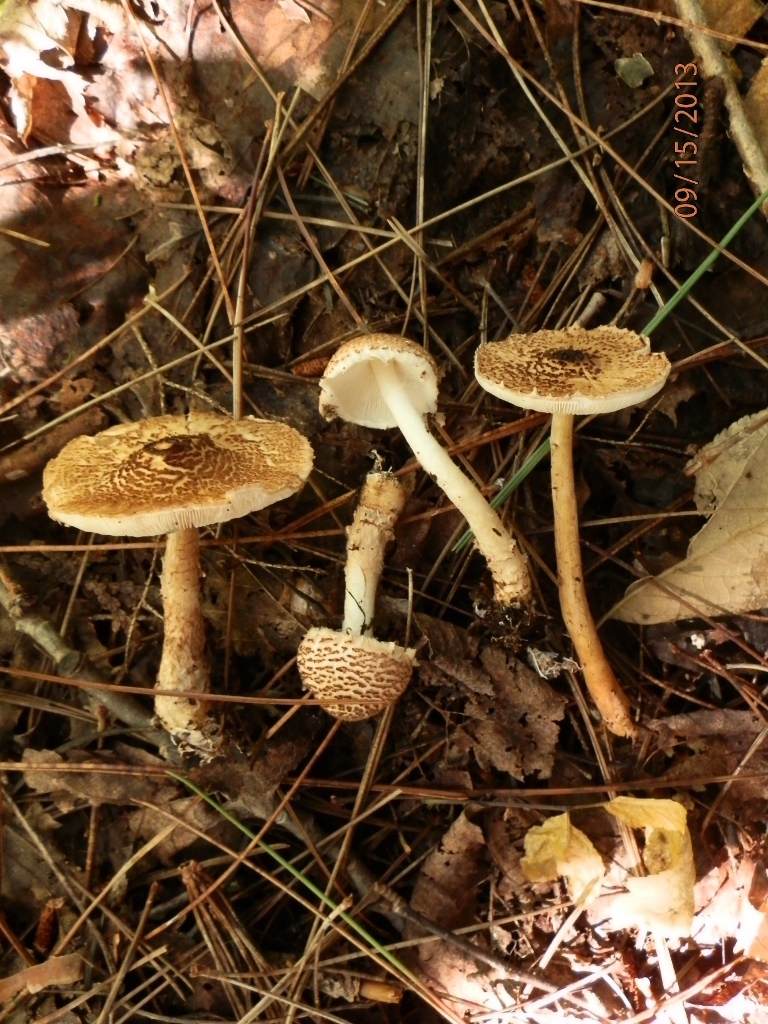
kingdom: Fungi
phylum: Basidiomycota
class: Agaricomycetes
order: Agaricales
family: Agaricaceae
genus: Lepiota
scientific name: Lepiota cortinarius
